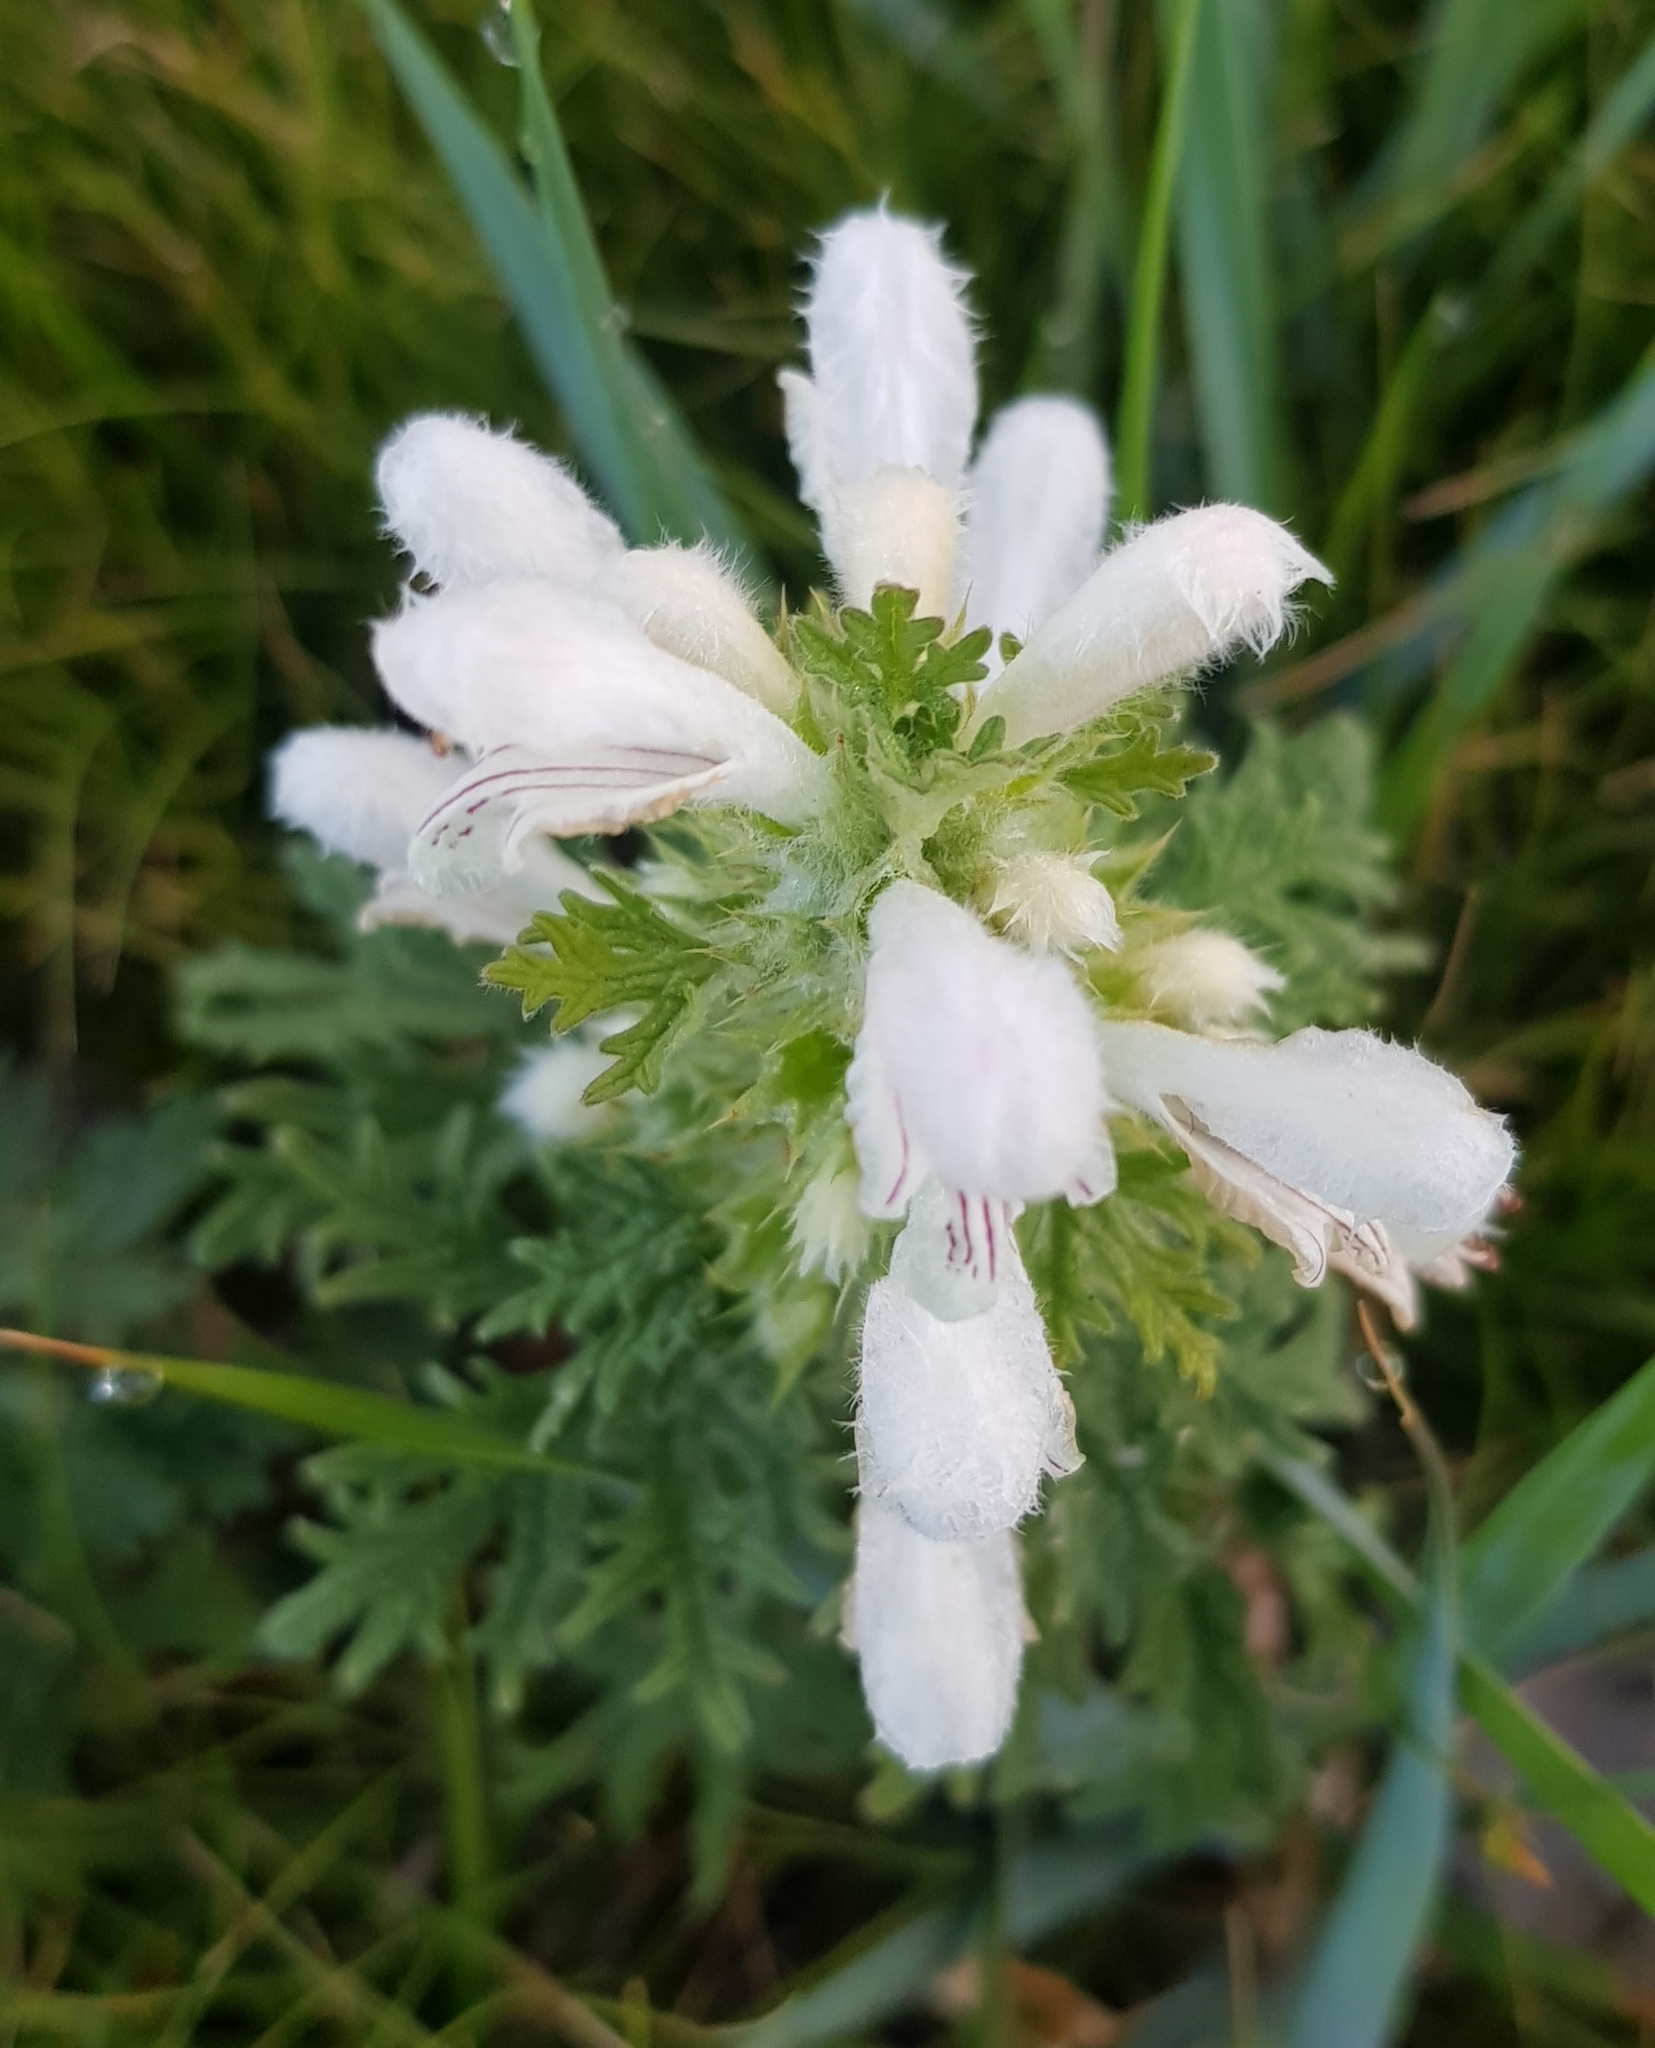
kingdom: Plantae
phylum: Tracheophyta
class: Magnoliopsida
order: Lamiales
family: Lamiaceae
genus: Panzerina
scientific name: Panzerina lanata
